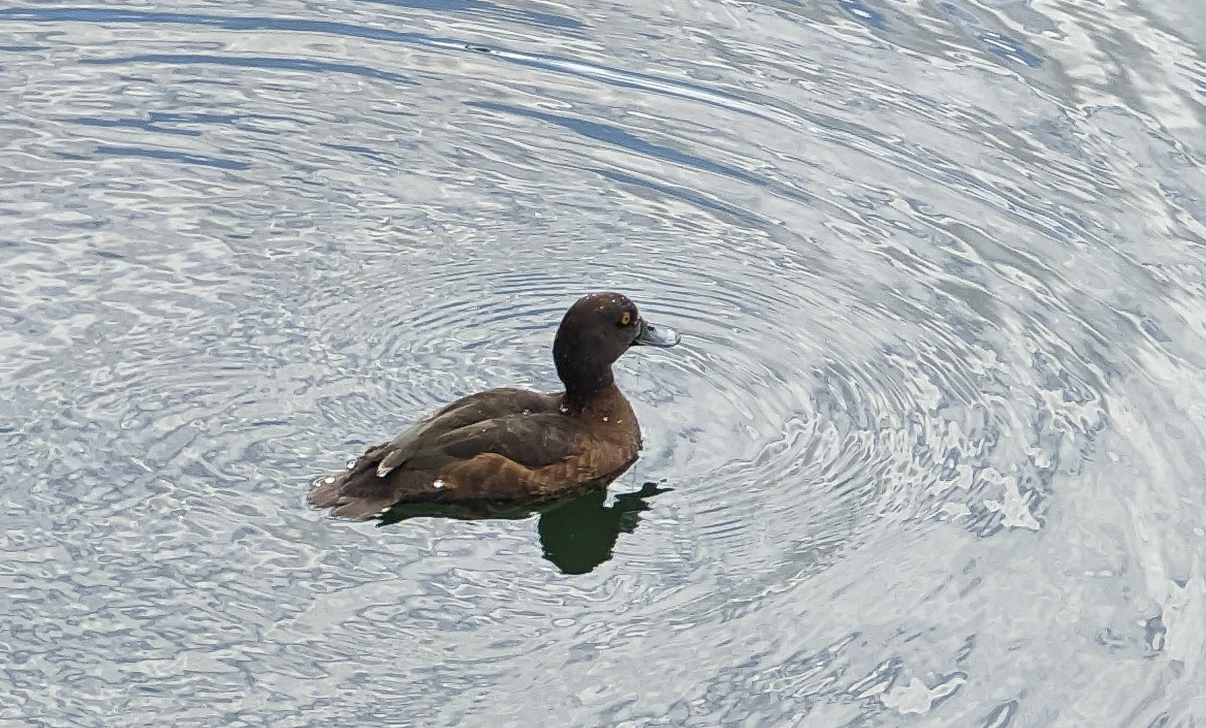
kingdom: Animalia
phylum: Chordata
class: Aves
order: Anseriformes
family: Anatidae
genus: Aythya
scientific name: Aythya fuligula
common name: Tufted duck
